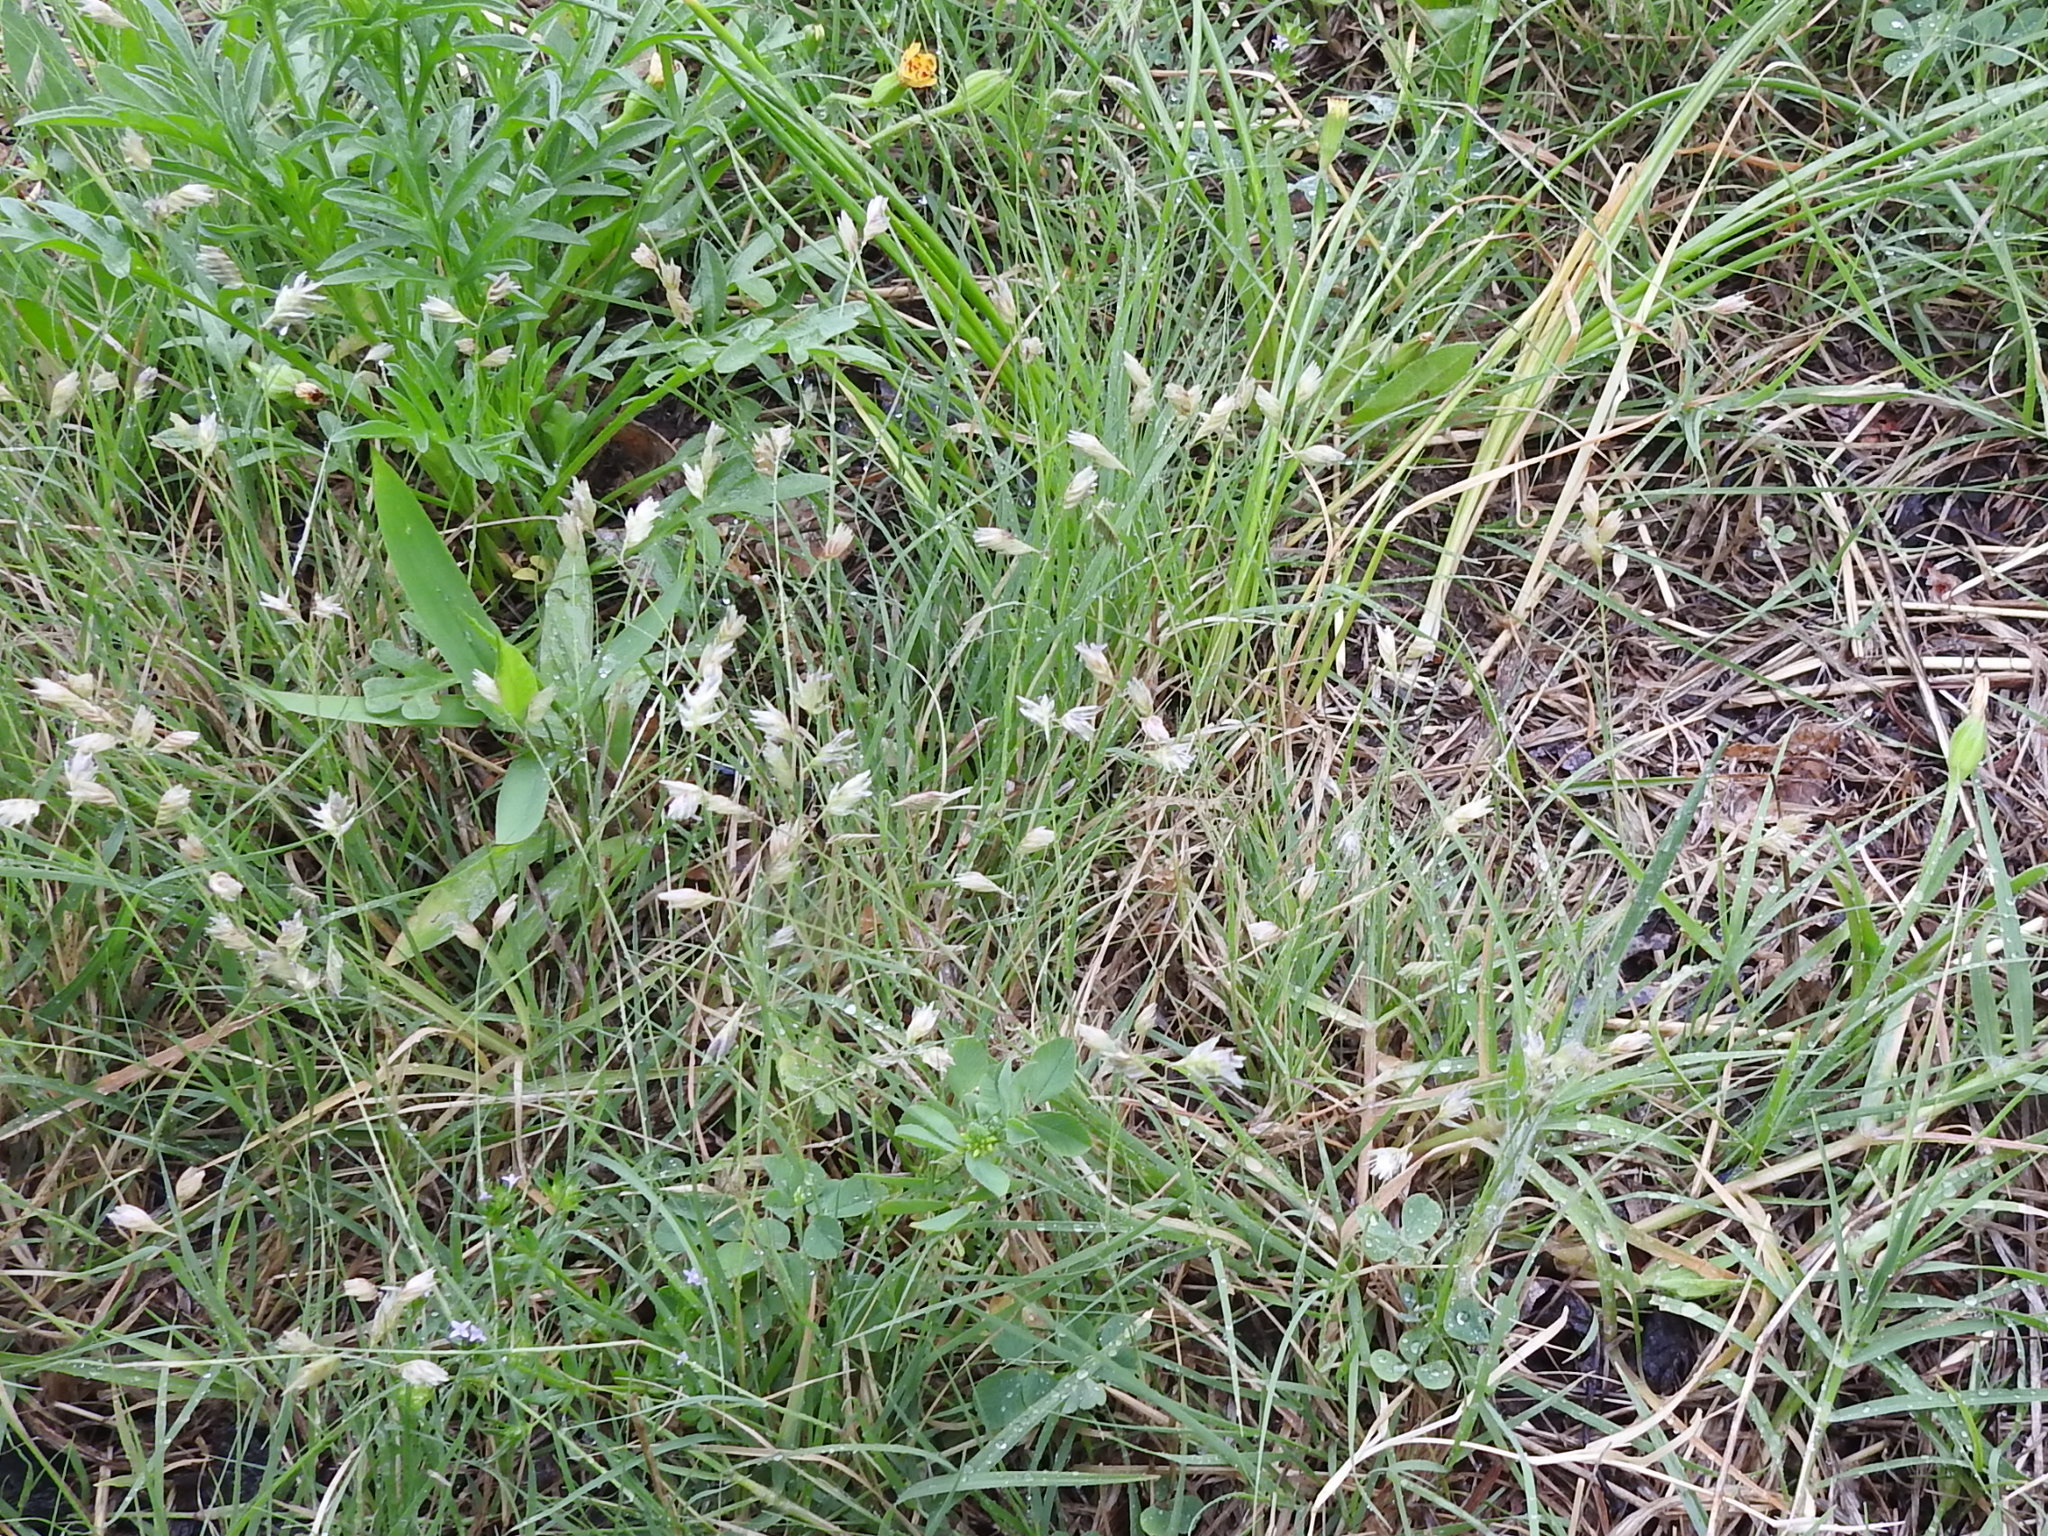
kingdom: Plantae
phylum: Tracheophyta
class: Liliopsida
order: Poales
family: Poaceae
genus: Bouteloua
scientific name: Bouteloua dactyloides
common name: Buffalo grass
